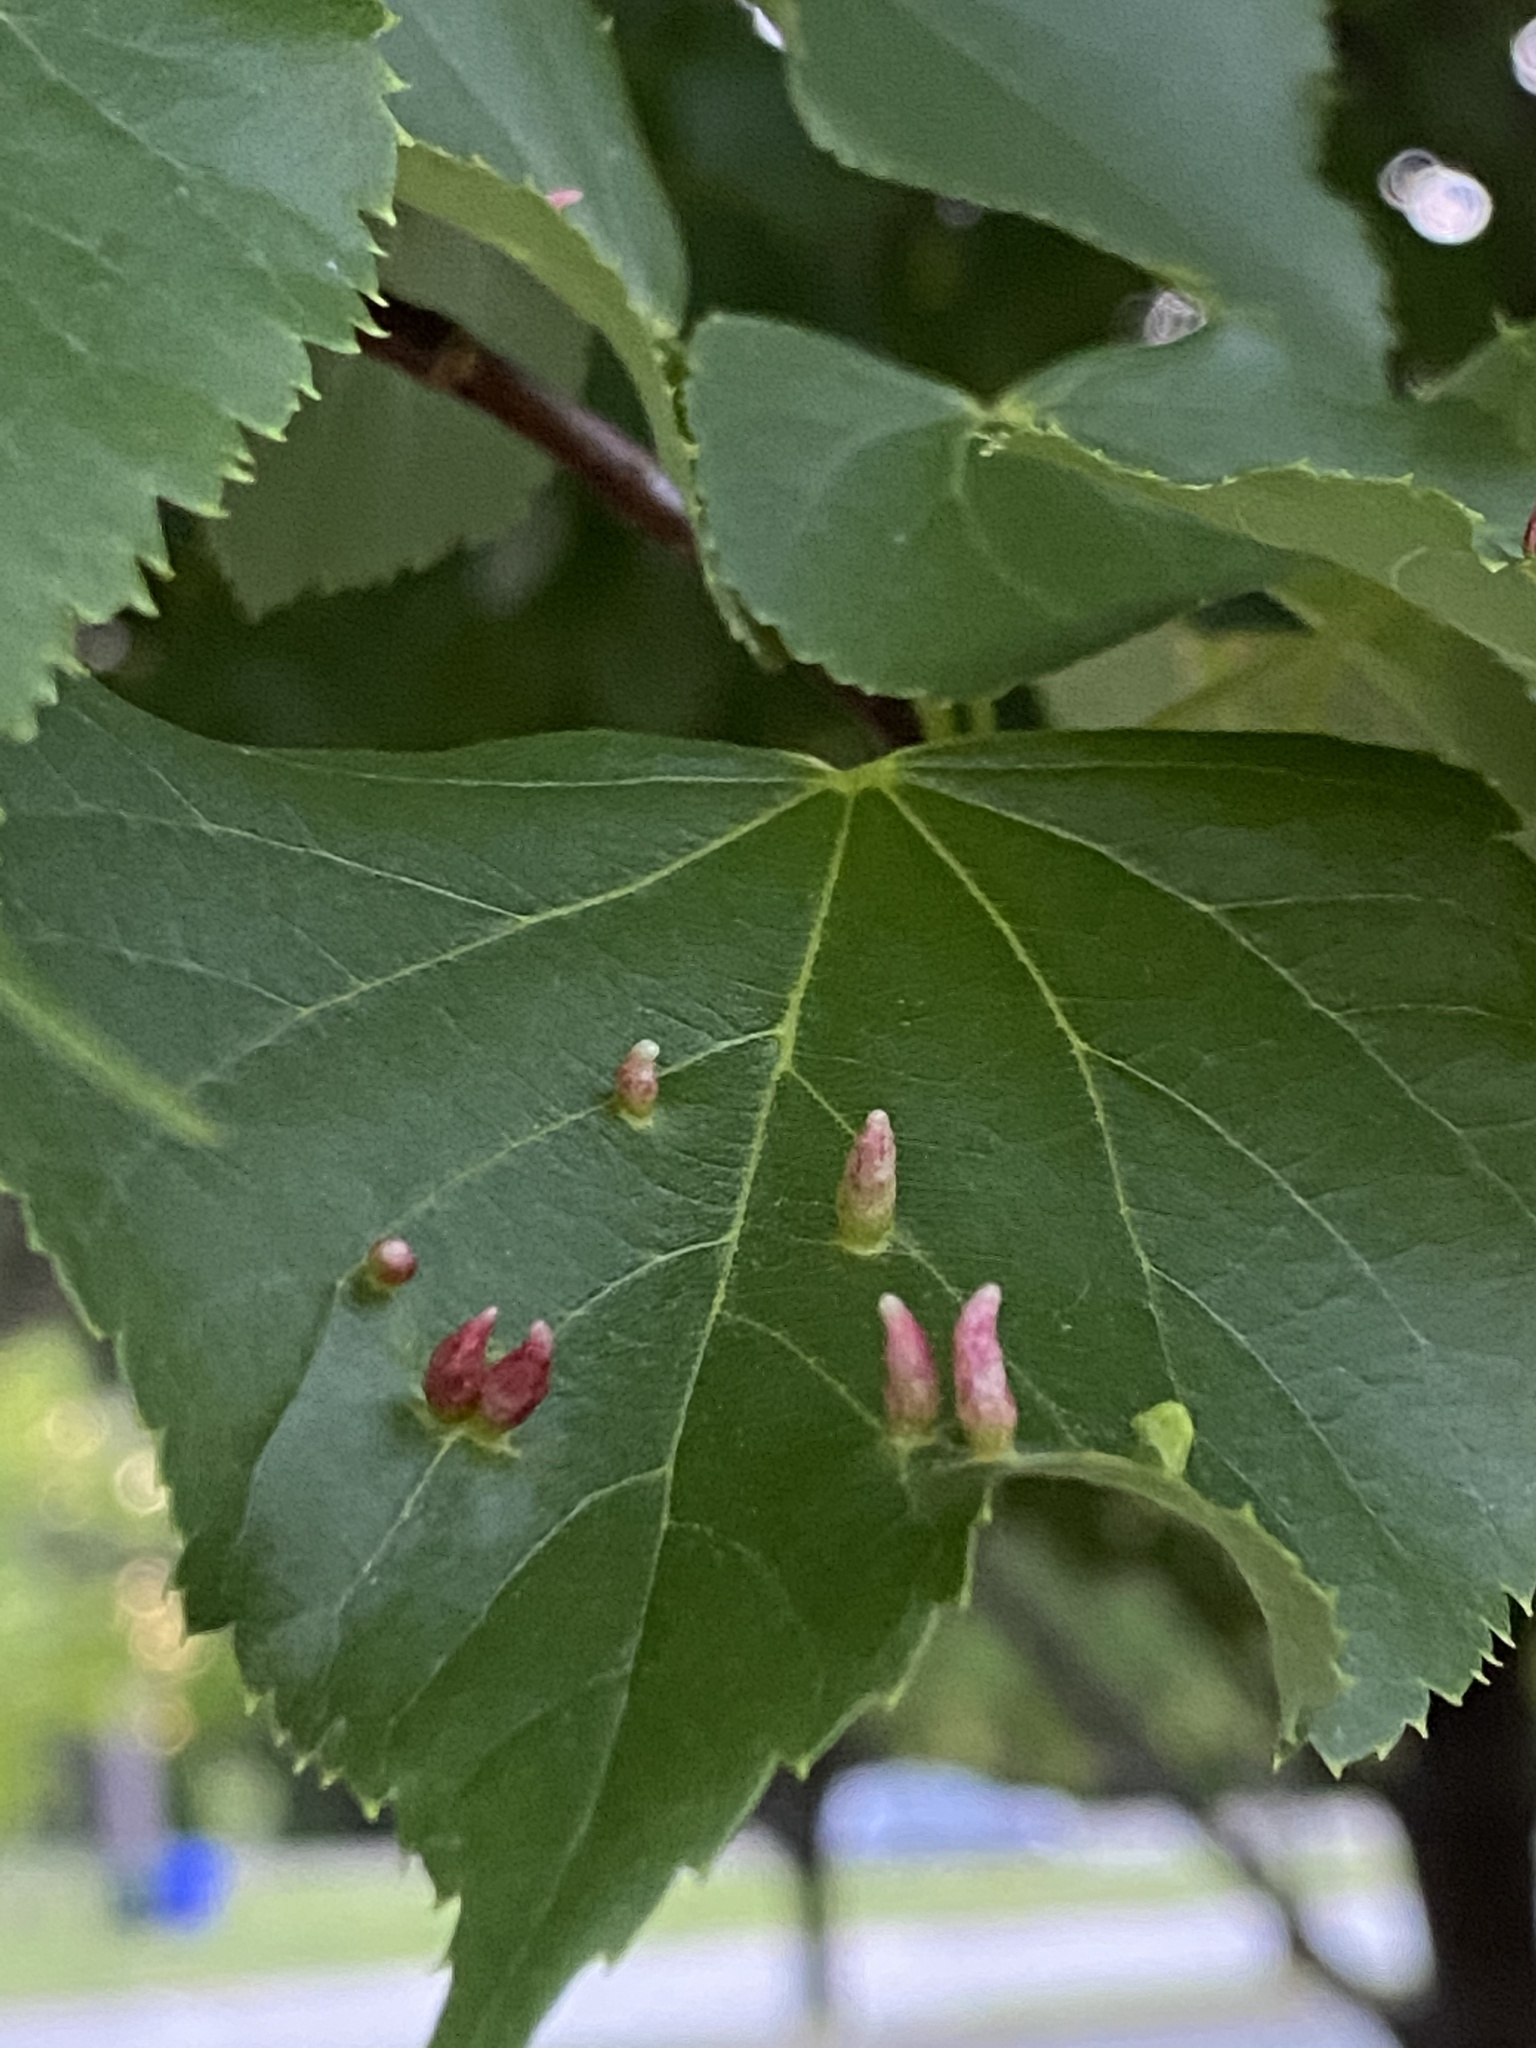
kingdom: Animalia
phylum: Arthropoda
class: Arachnida
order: Trombidiformes
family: Eriophyidae
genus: Eriophyes
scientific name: Eriophyes tiliae
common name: Red nail gall mite
